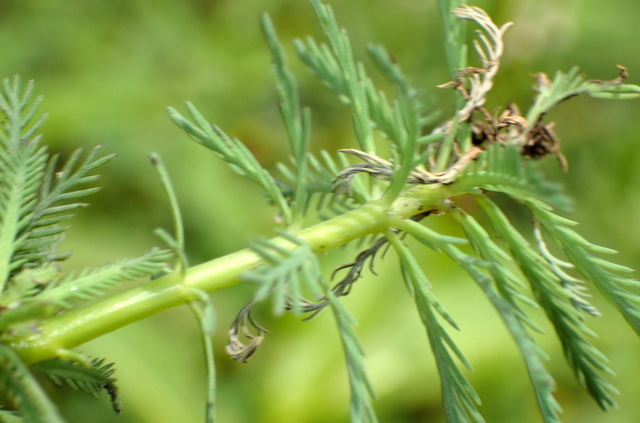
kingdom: Plantae
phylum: Tracheophyta
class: Magnoliopsida
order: Saxifragales
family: Haloragaceae
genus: Myriophyllum
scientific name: Myriophyllum aquaticum
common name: Parrot's feather
